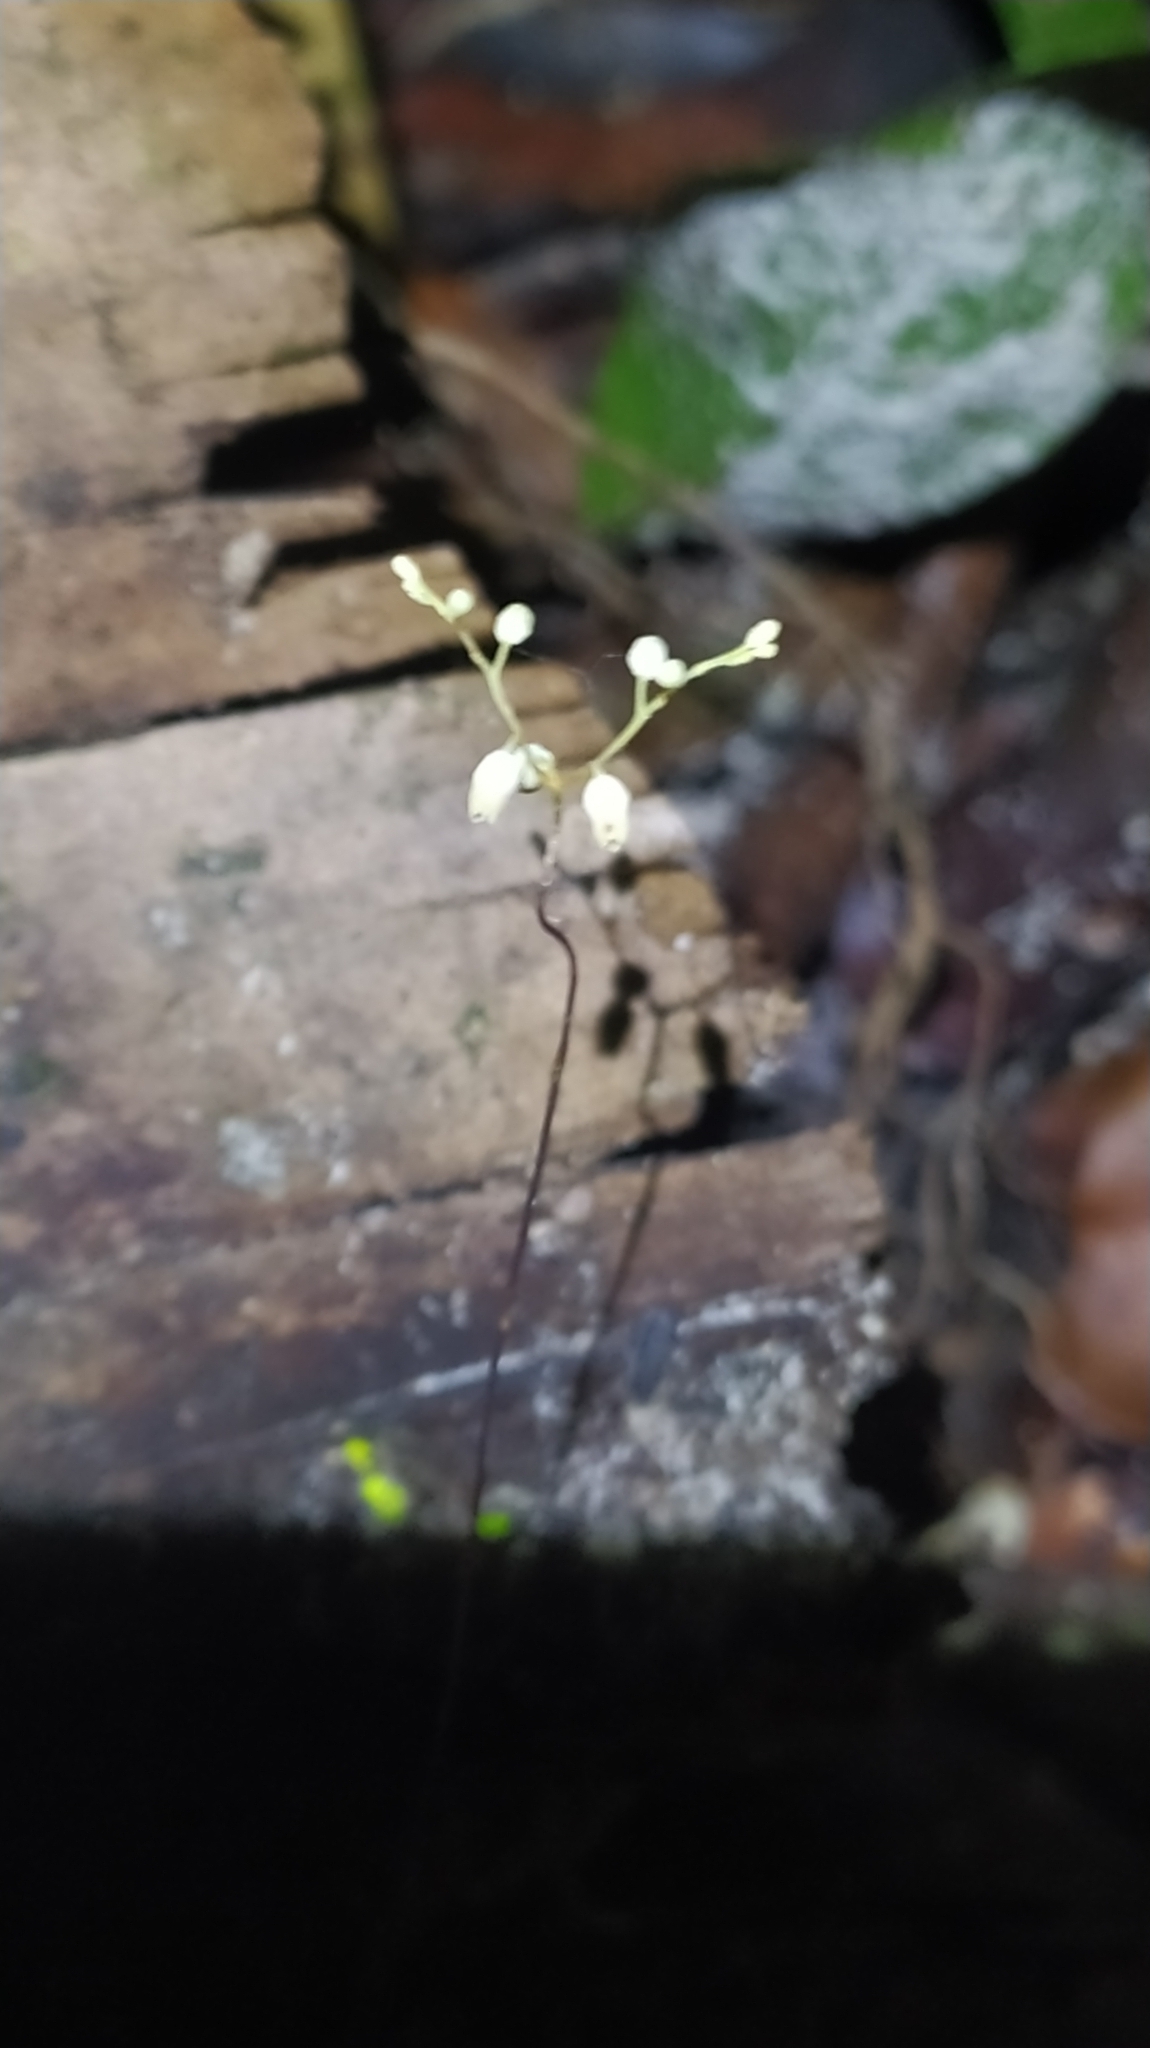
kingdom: Plantae
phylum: Tracheophyta
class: Liliopsida
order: Dioscoreales
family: Burmanniaceae
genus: Gymnosiphon
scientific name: Gymnosiphon breviflorus
